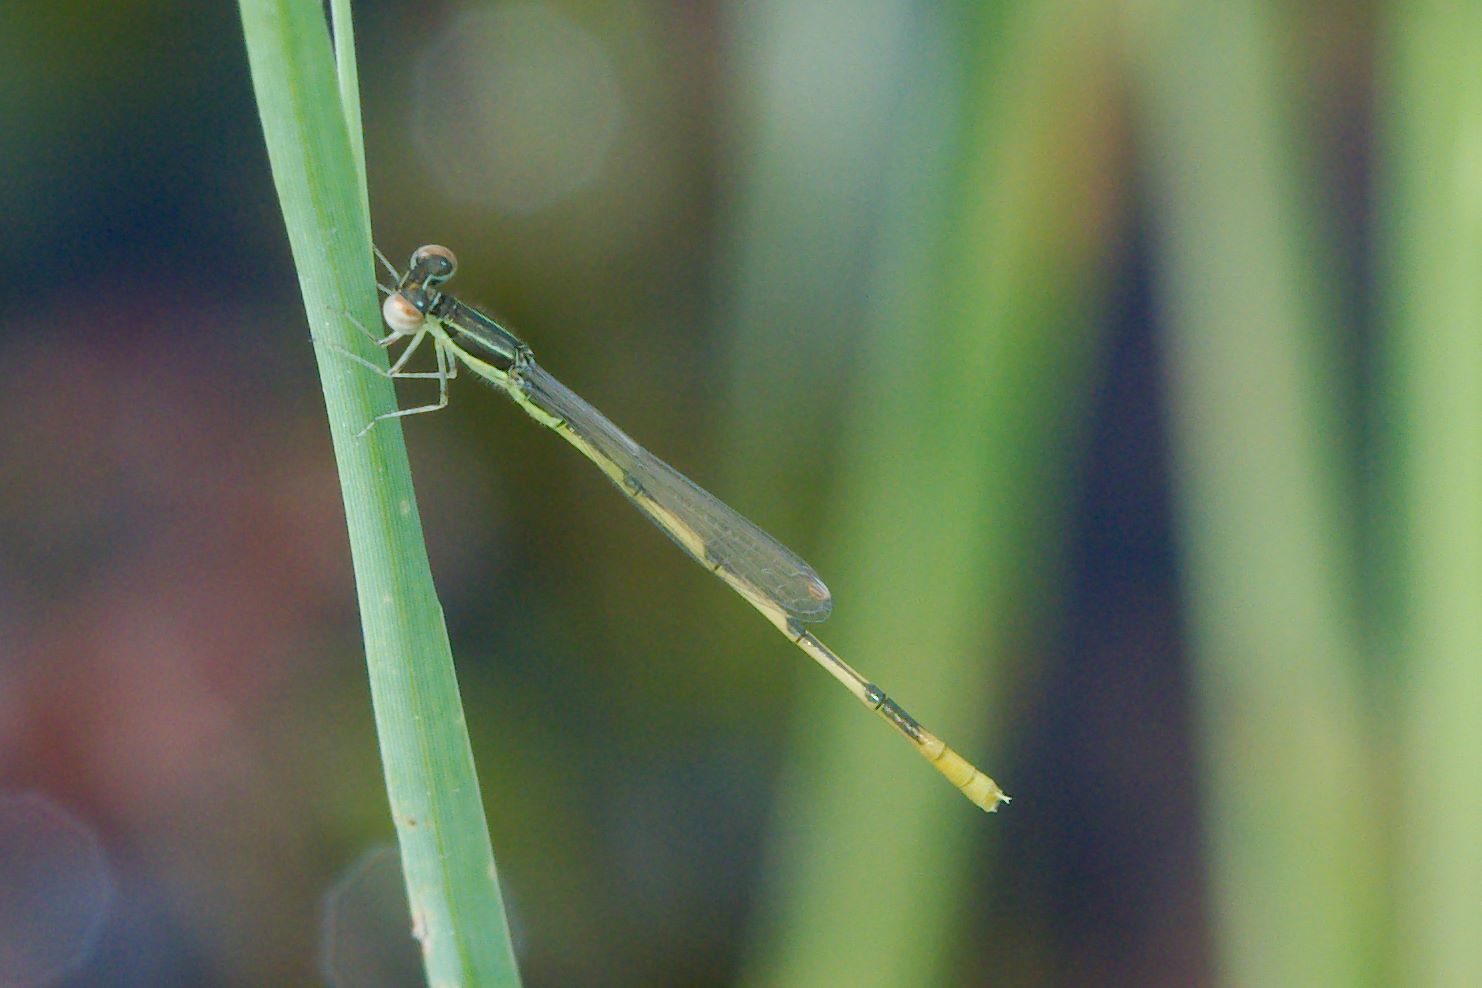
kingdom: Animalia
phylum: Arthropoda
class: Insecta
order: Odonata
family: Coenagrionidae
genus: Ischnura
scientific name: Ischnura hastata
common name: Citrine forktail
